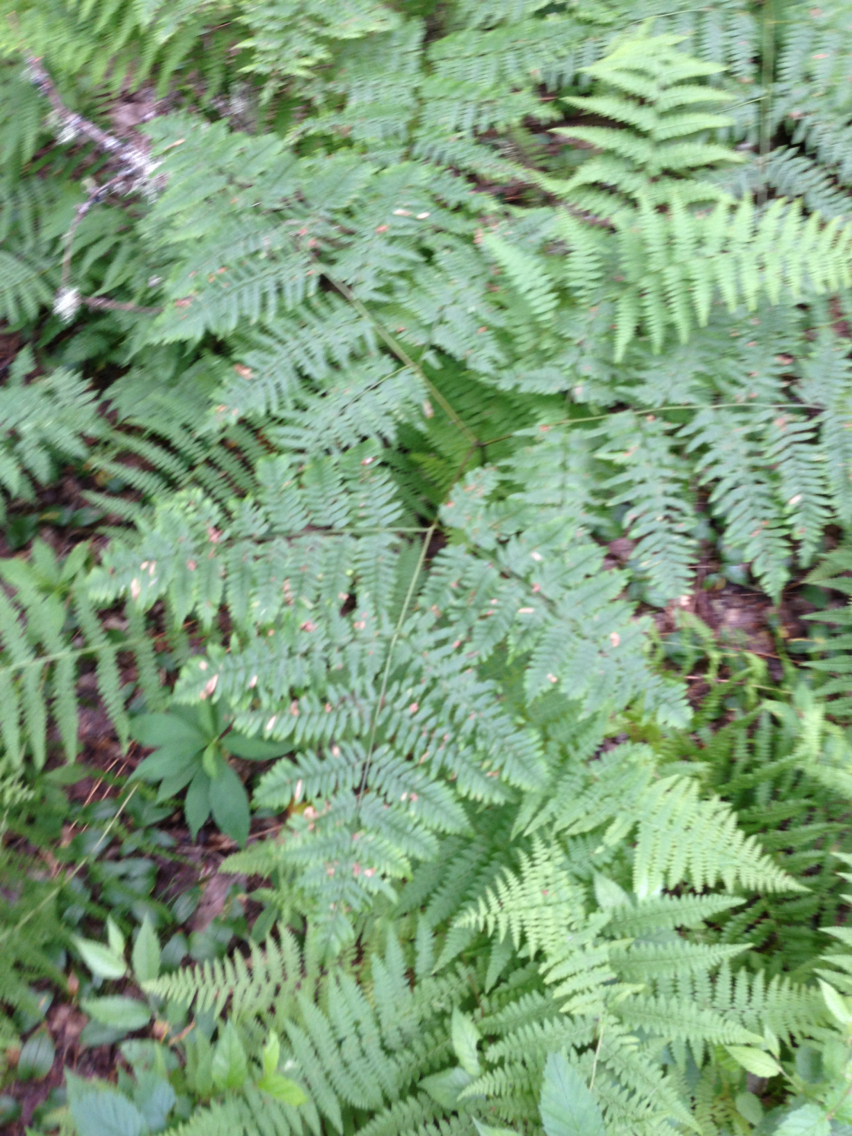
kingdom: Plantae
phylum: Tracheophyta
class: Polypodiopsida
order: Polypodiales
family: Dennstaedtiaceae
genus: Pteridium
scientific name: Pteridium aquilinum
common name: Bracken
